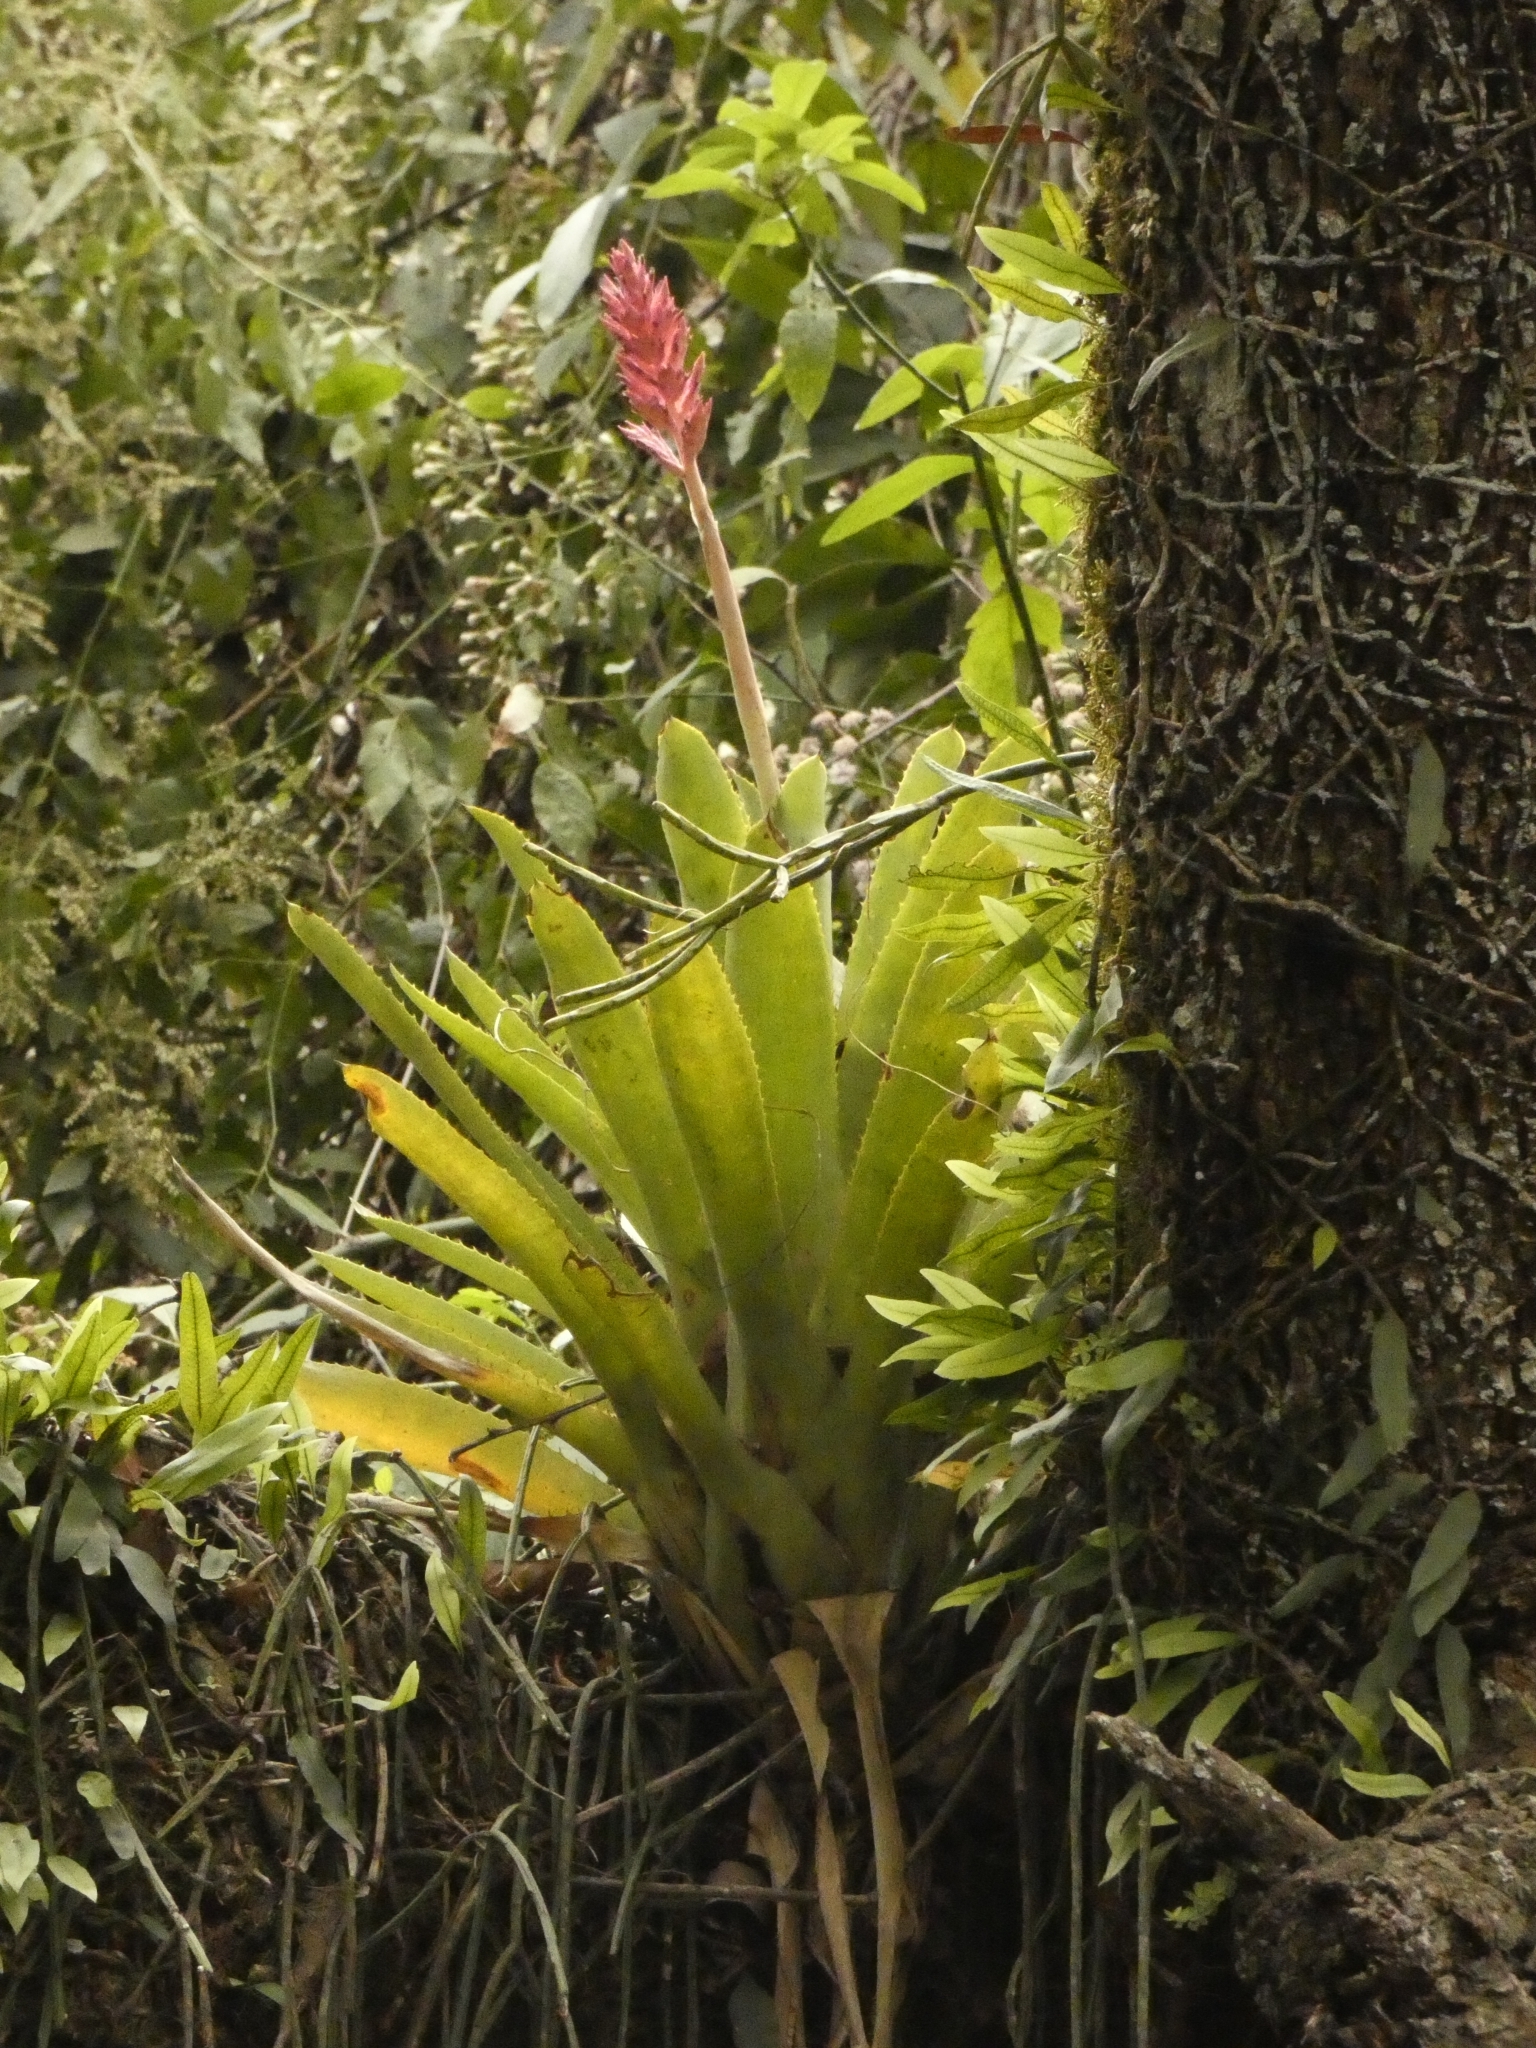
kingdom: Plantae
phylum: Tracheophyta
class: Liliopsida
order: Poales
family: Bromeliaceae
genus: Aechmea
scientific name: Aechmea distichantha
